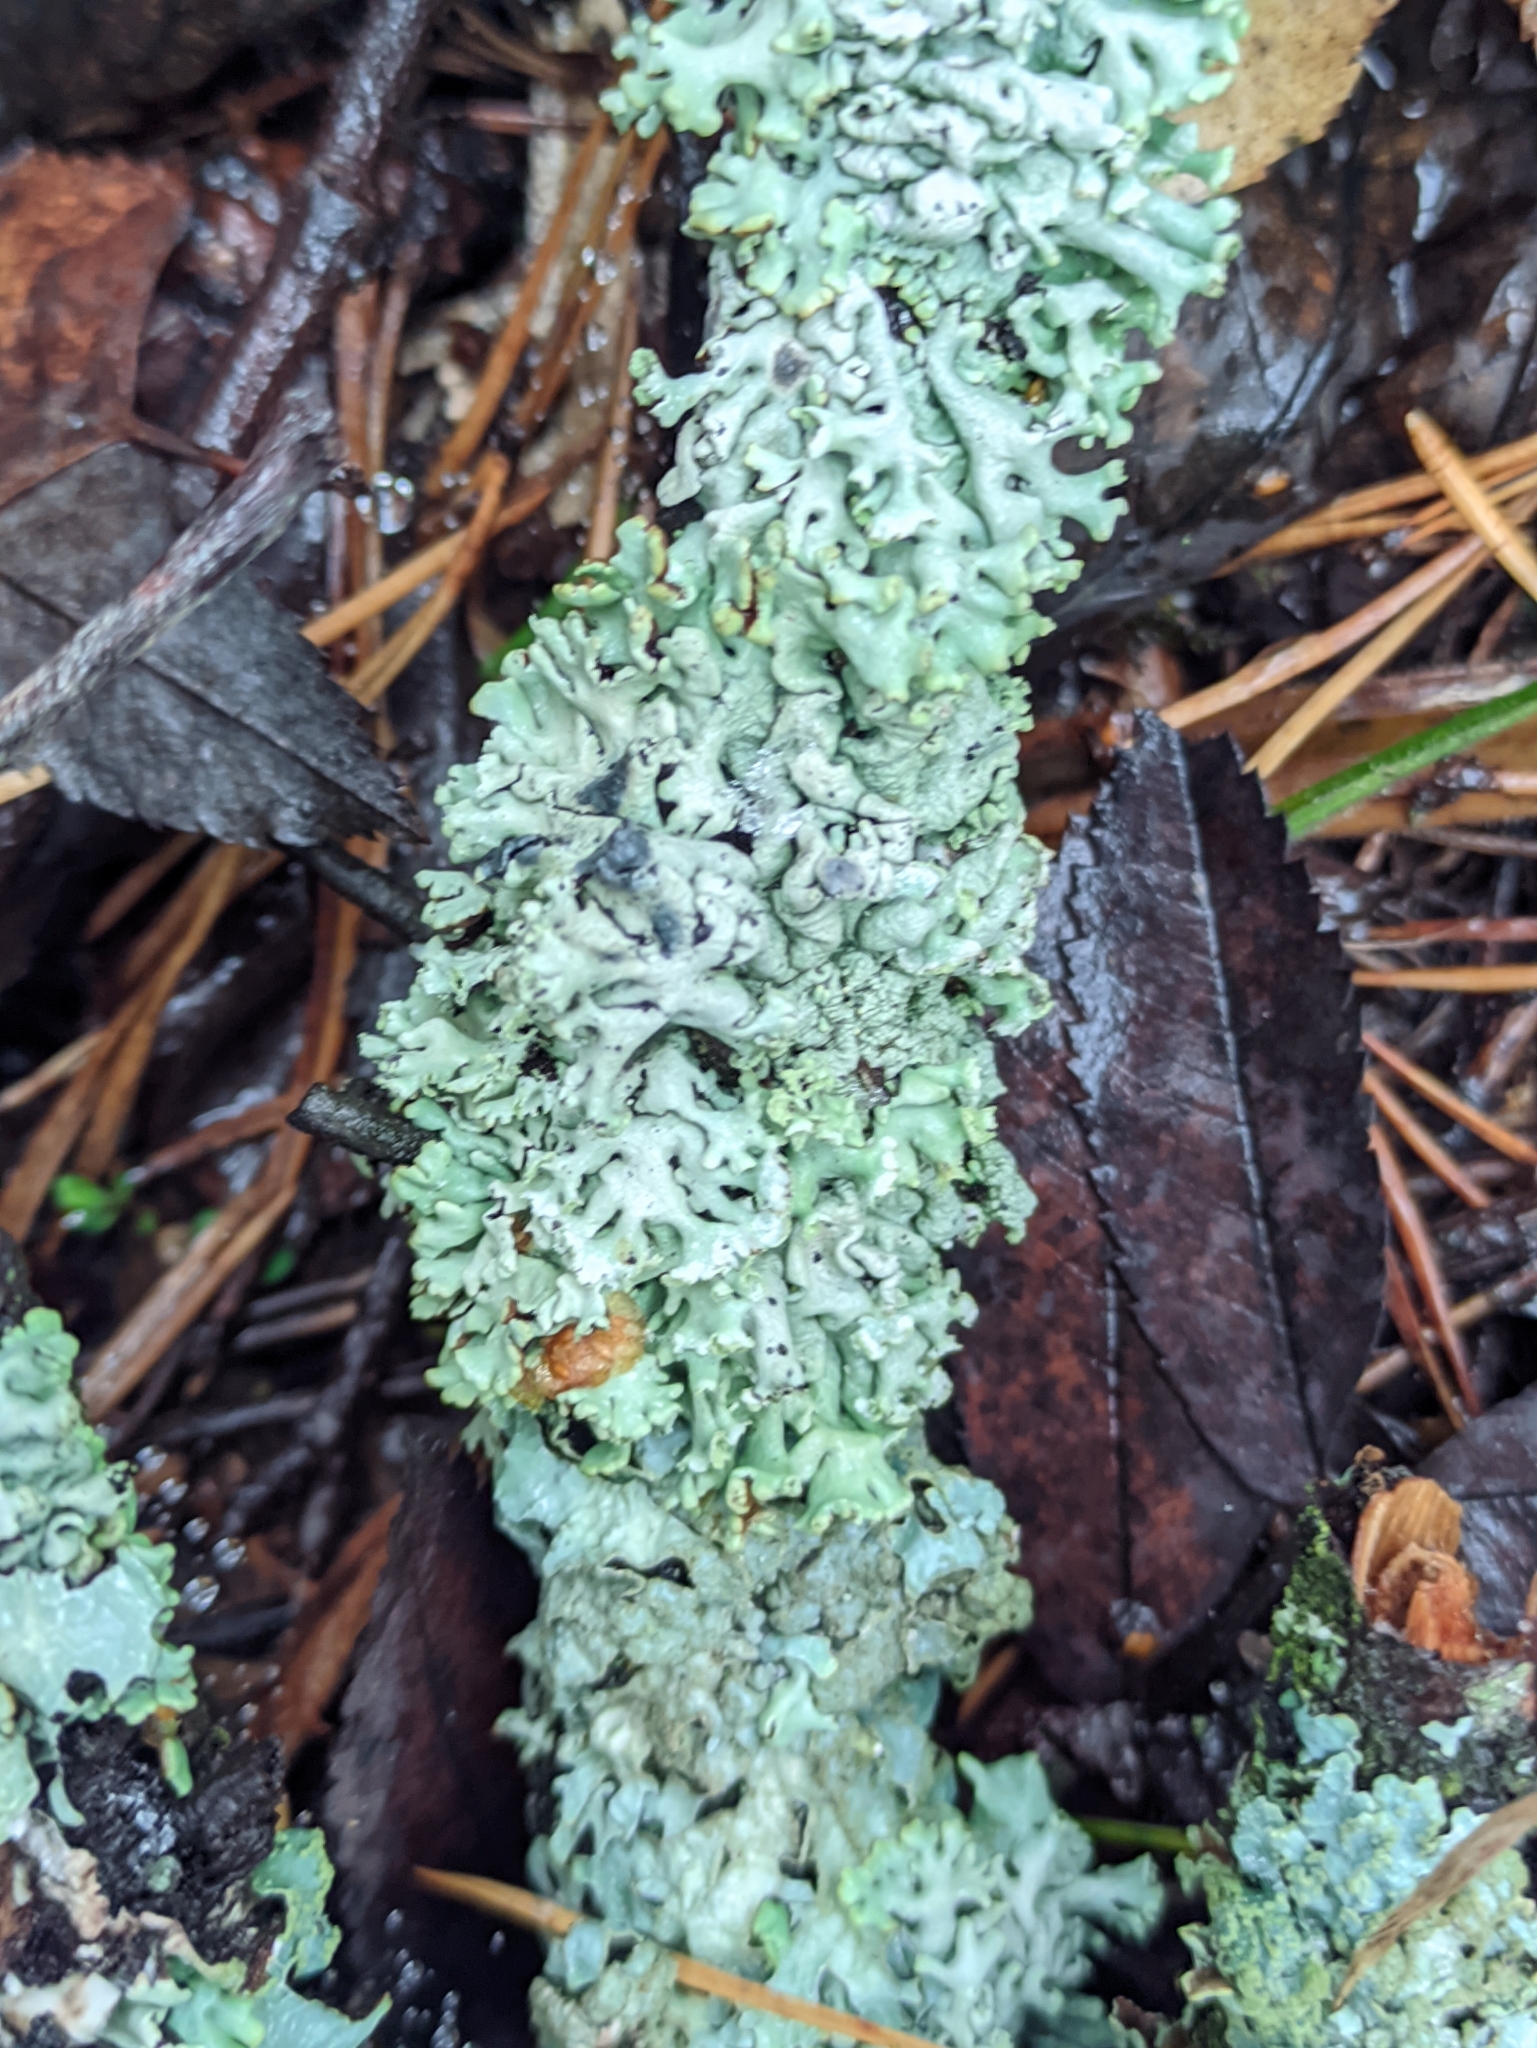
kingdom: Fungi
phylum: Ascomycota
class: Lecanoromycetes
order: Lecanorales
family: Parmeliaceae
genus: Hypogymnia
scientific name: Hypogymnia physodes
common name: Dark crottle
